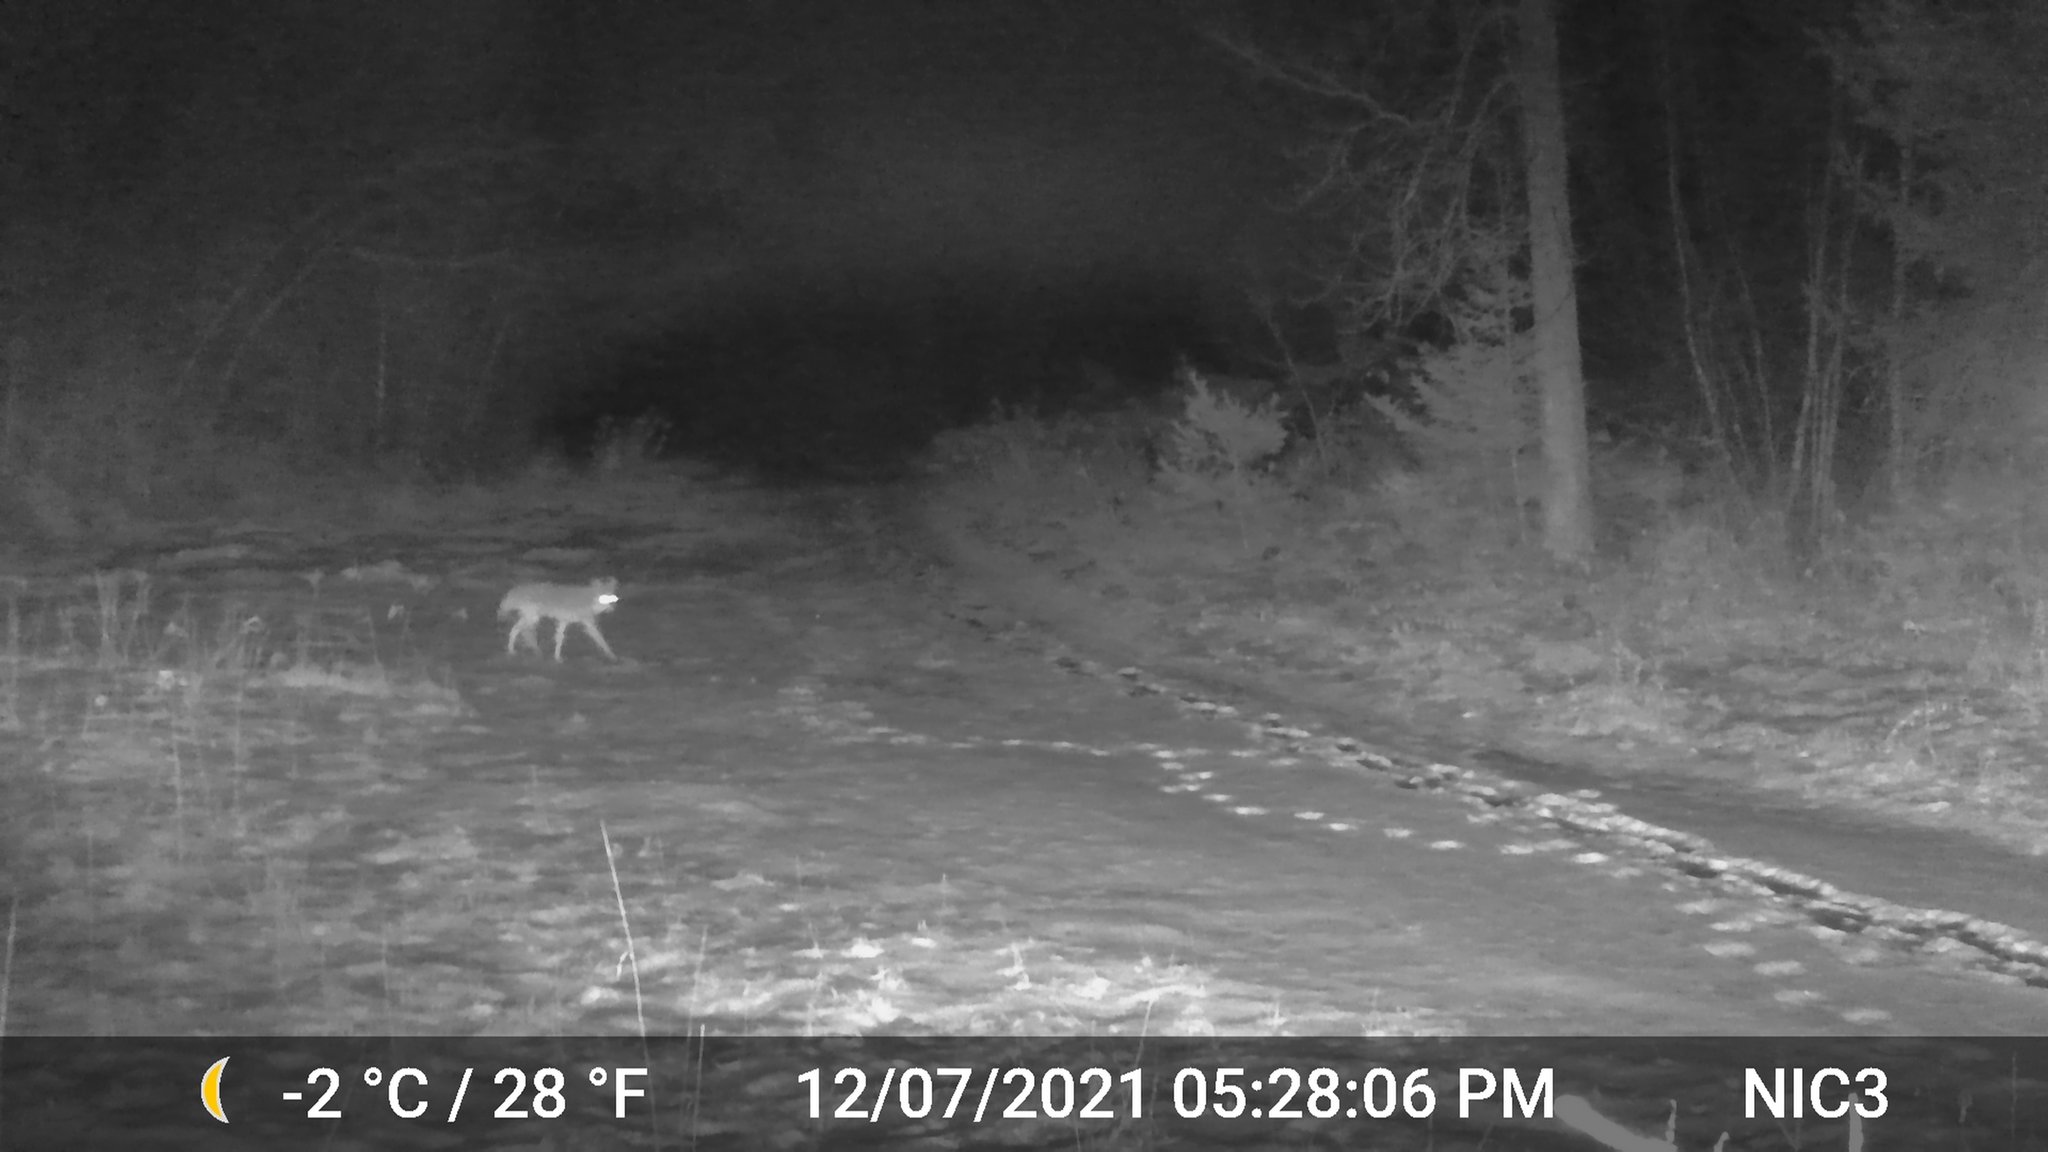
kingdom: Animalia
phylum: Chordata
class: Mammalia
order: Carnivora
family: Canidae
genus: Canis
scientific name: Canis latrans
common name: Coyote
